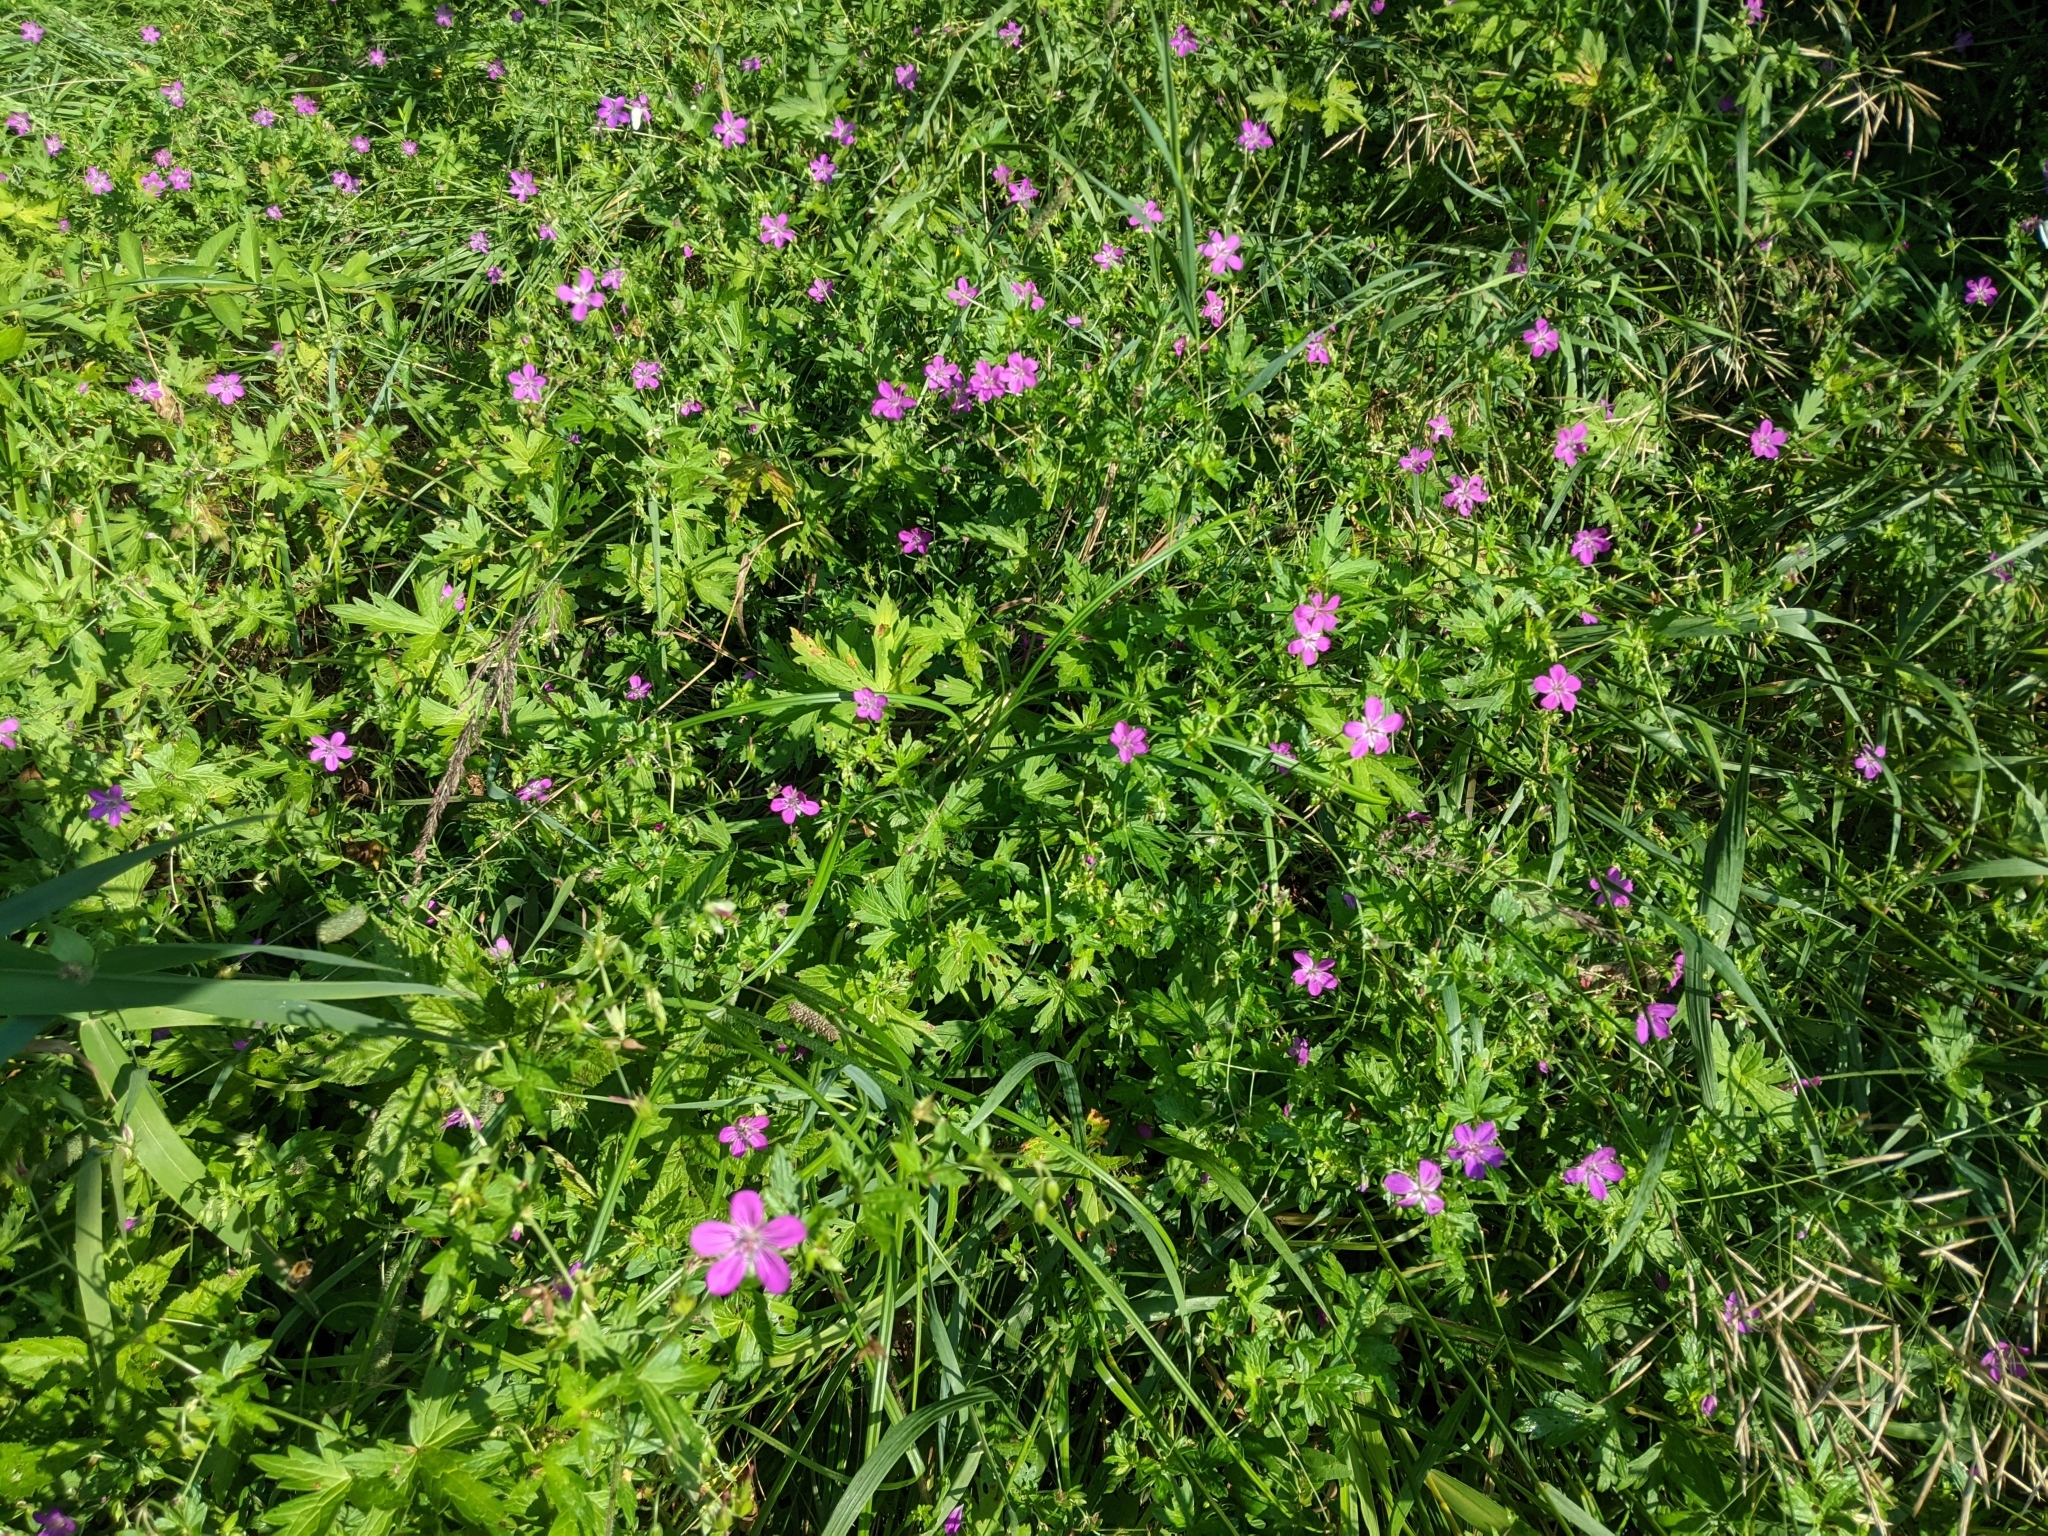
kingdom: Plantae
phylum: Tracheophyta
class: Magnoliopsida
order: Geraniales
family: Geraniaceae
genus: Geranium
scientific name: Geranium palustre
